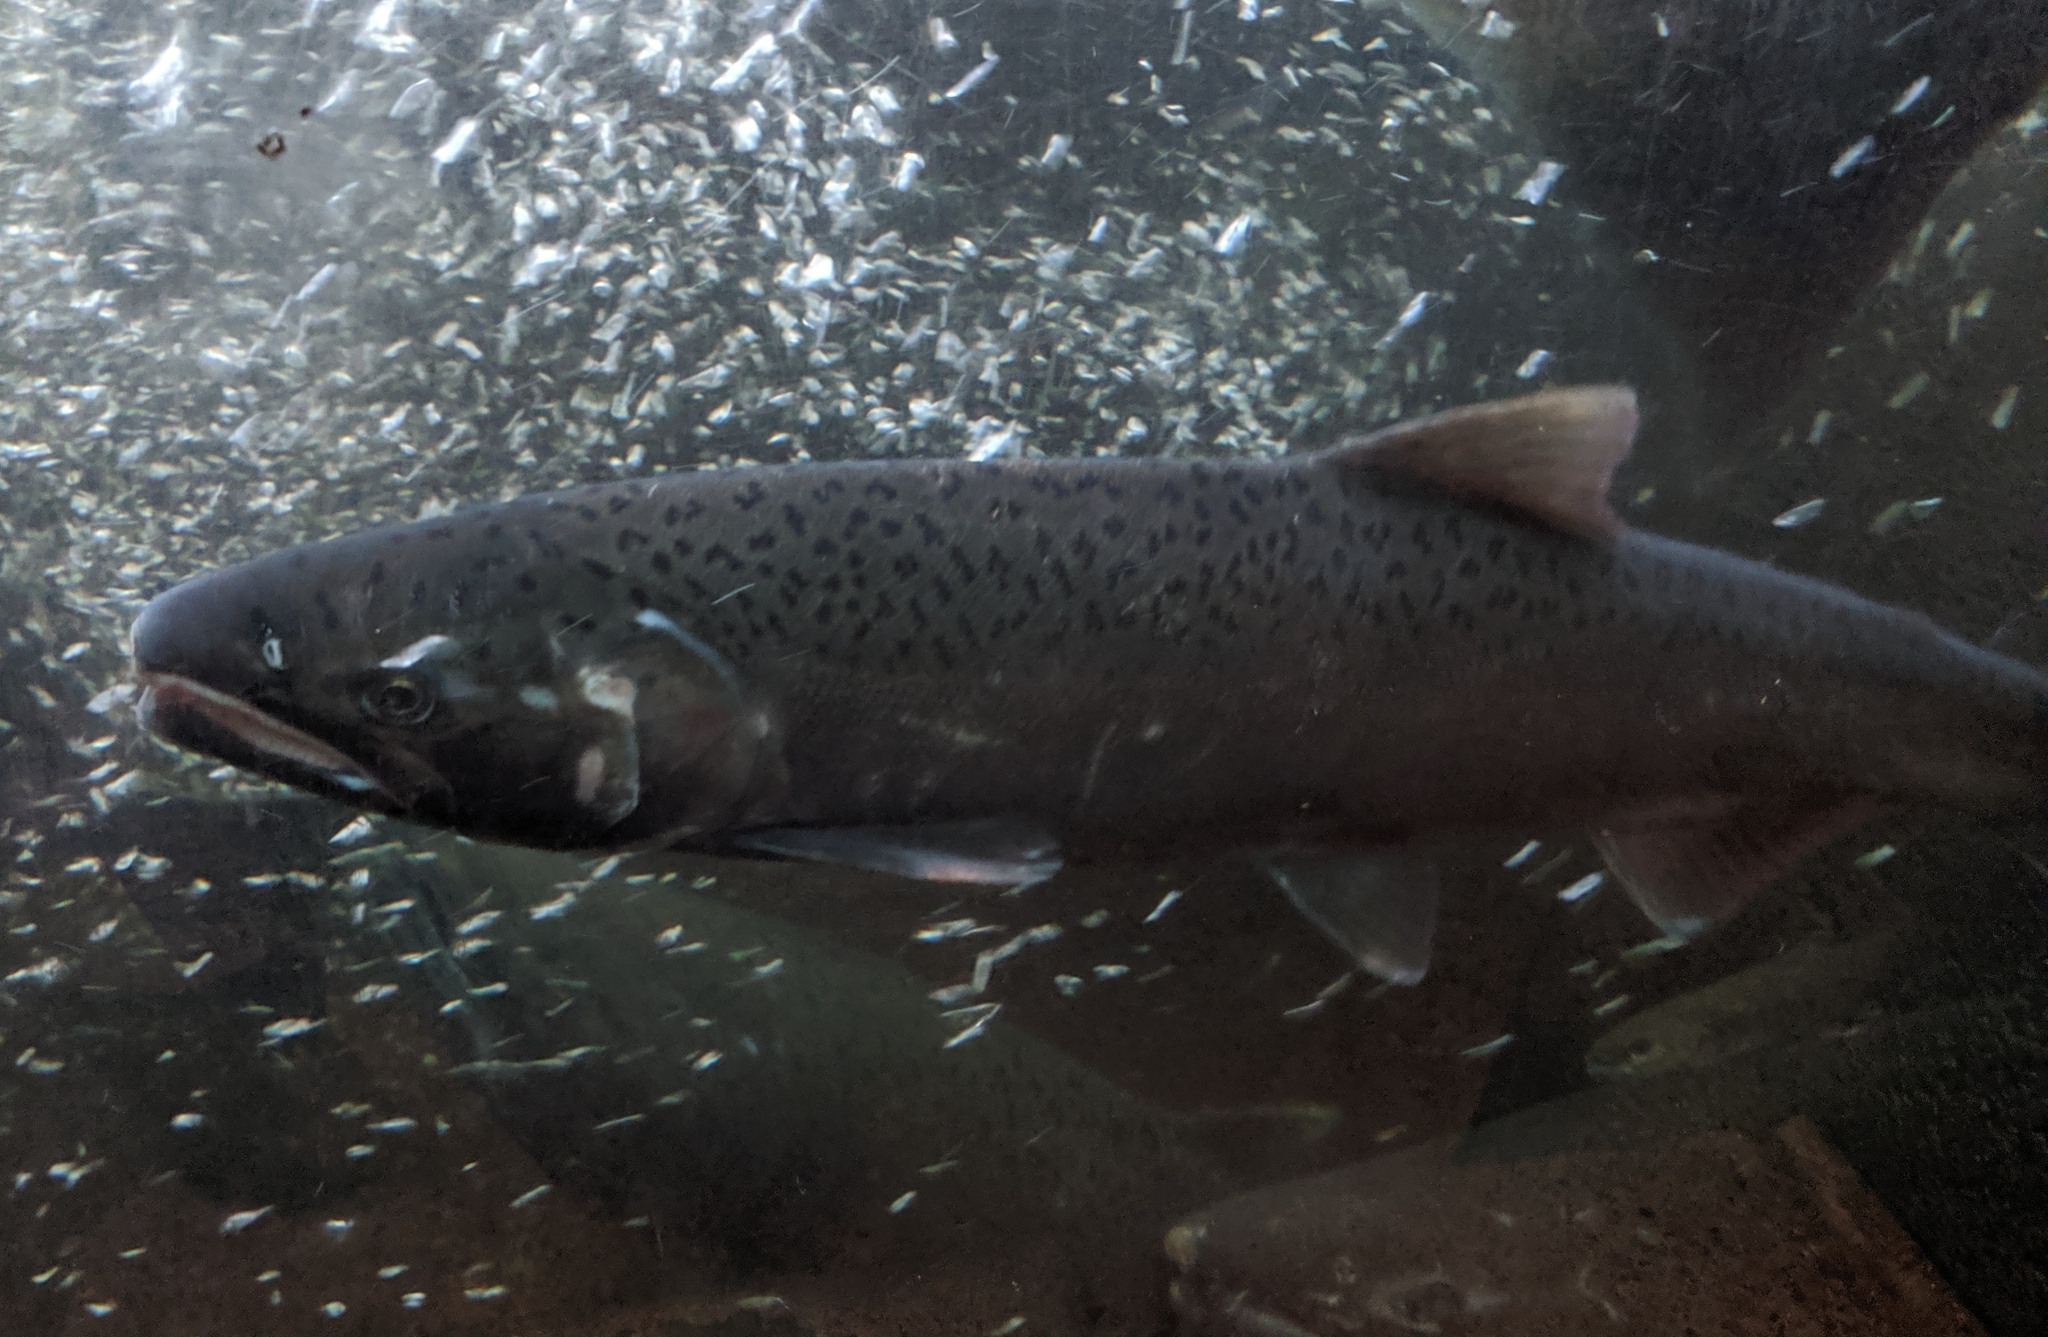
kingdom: Animalia
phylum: Chordata
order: Salmoniformes
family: Salmonidae
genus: Oncorhynchus
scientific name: Oncorhynchus kisutch
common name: Coho salmon
